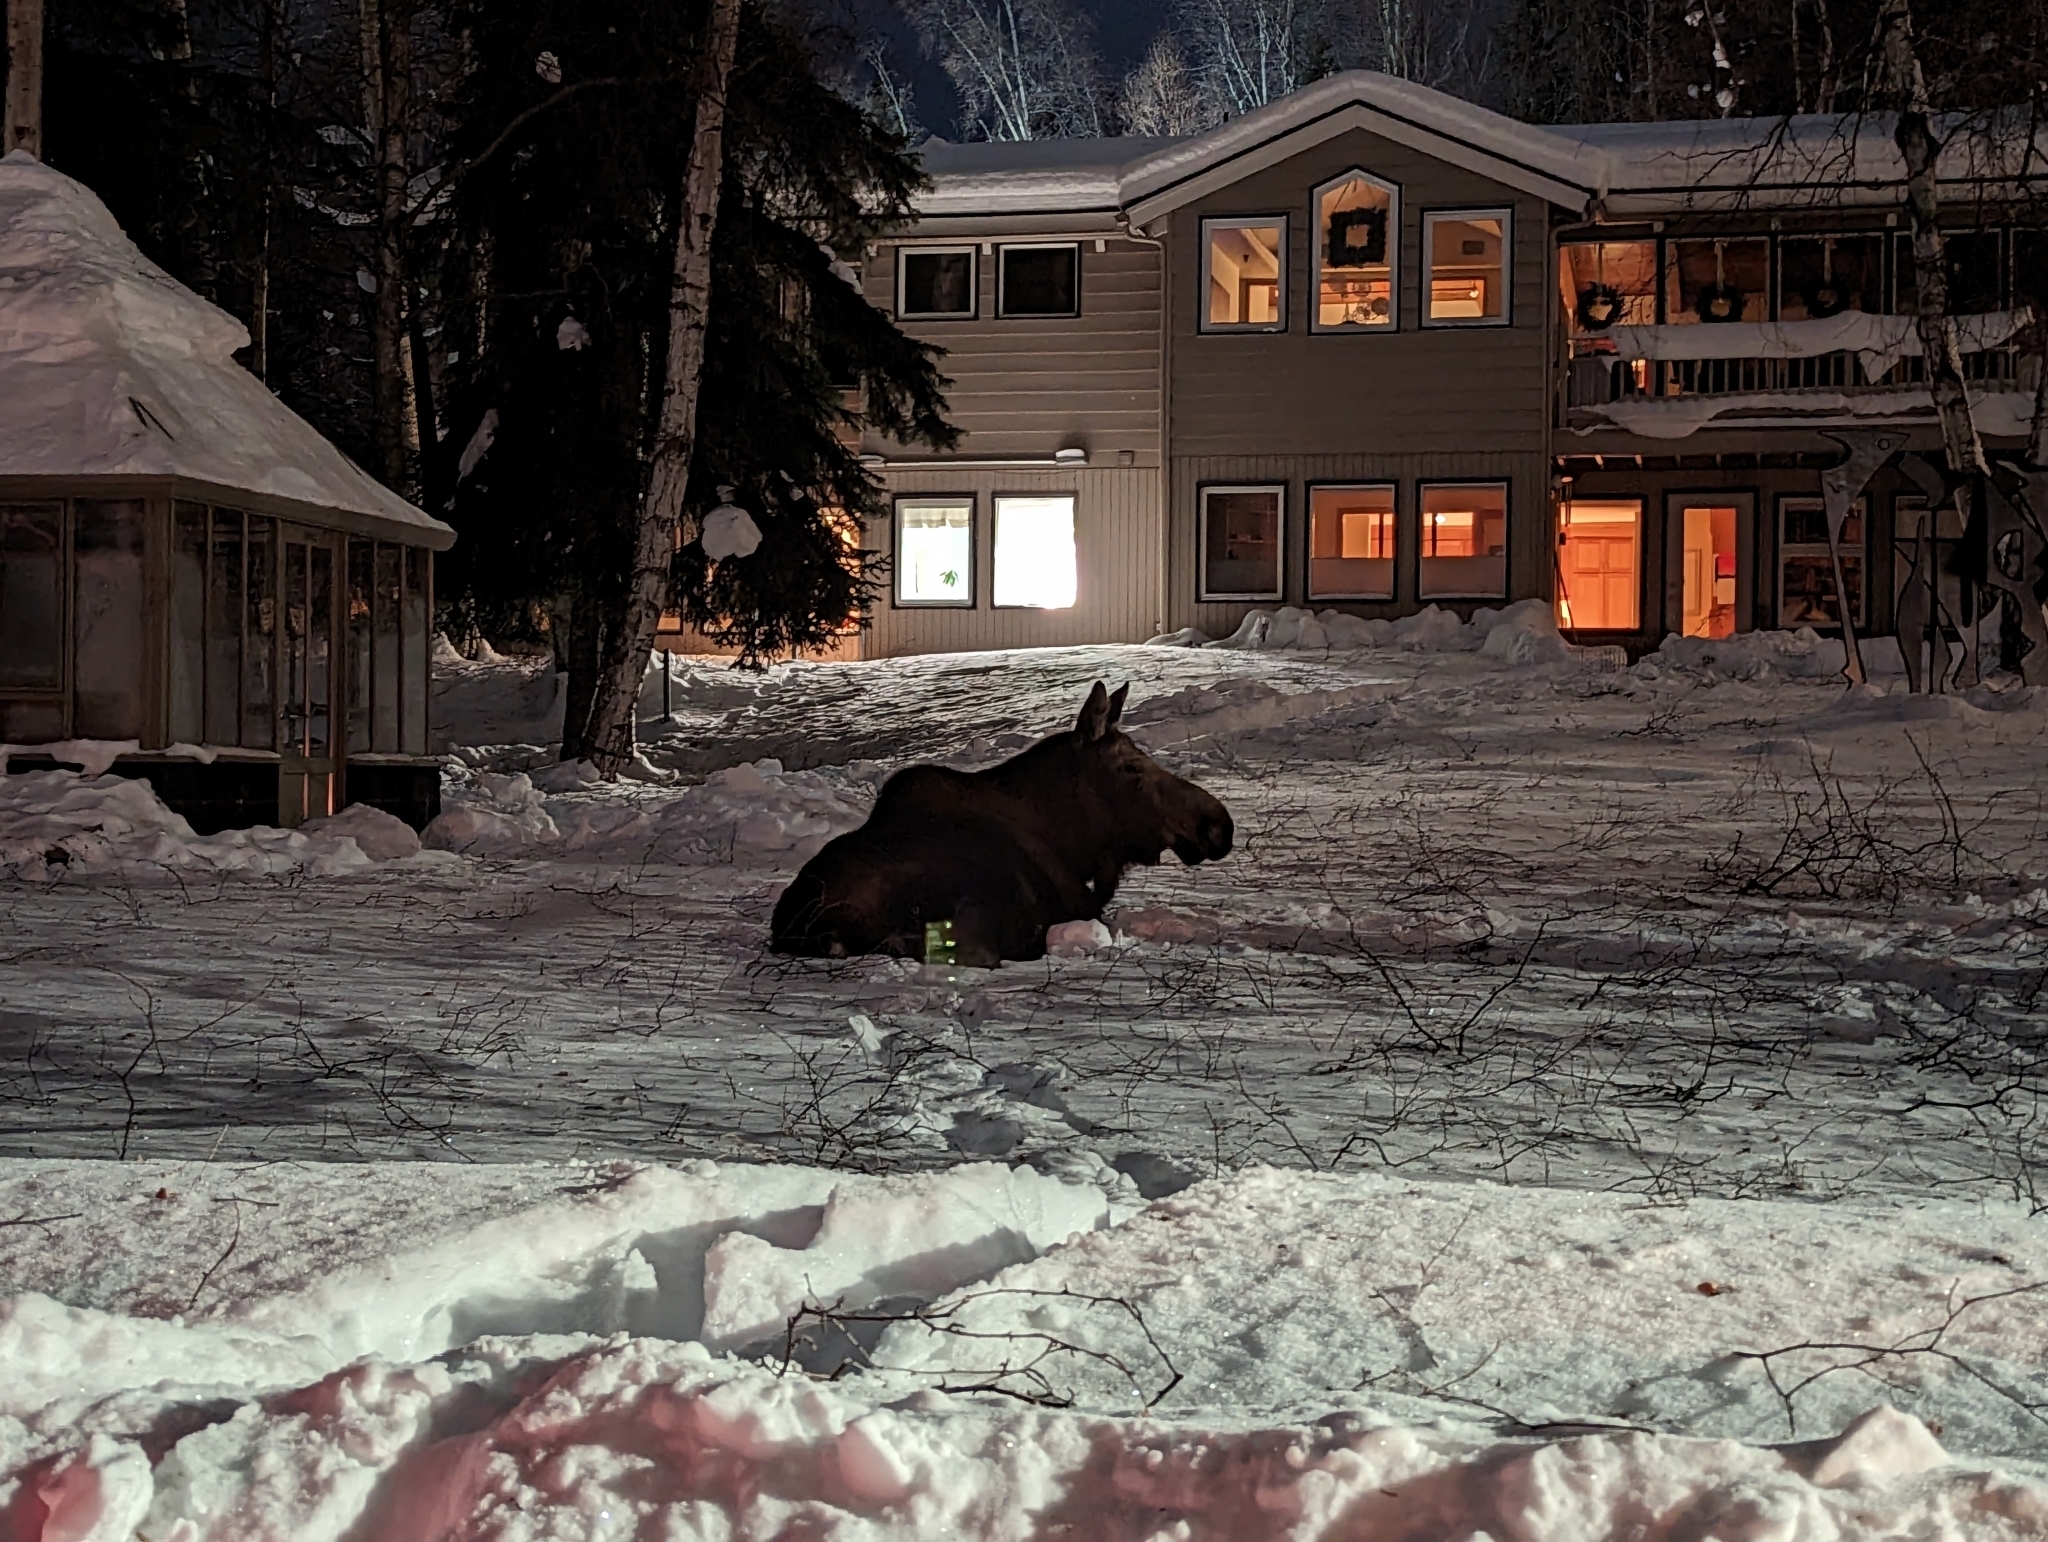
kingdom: Animalia
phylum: Chordata
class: Mammalia
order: Artiodactyla
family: Cervidae
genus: Alces
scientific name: Alces alces
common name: Moose
